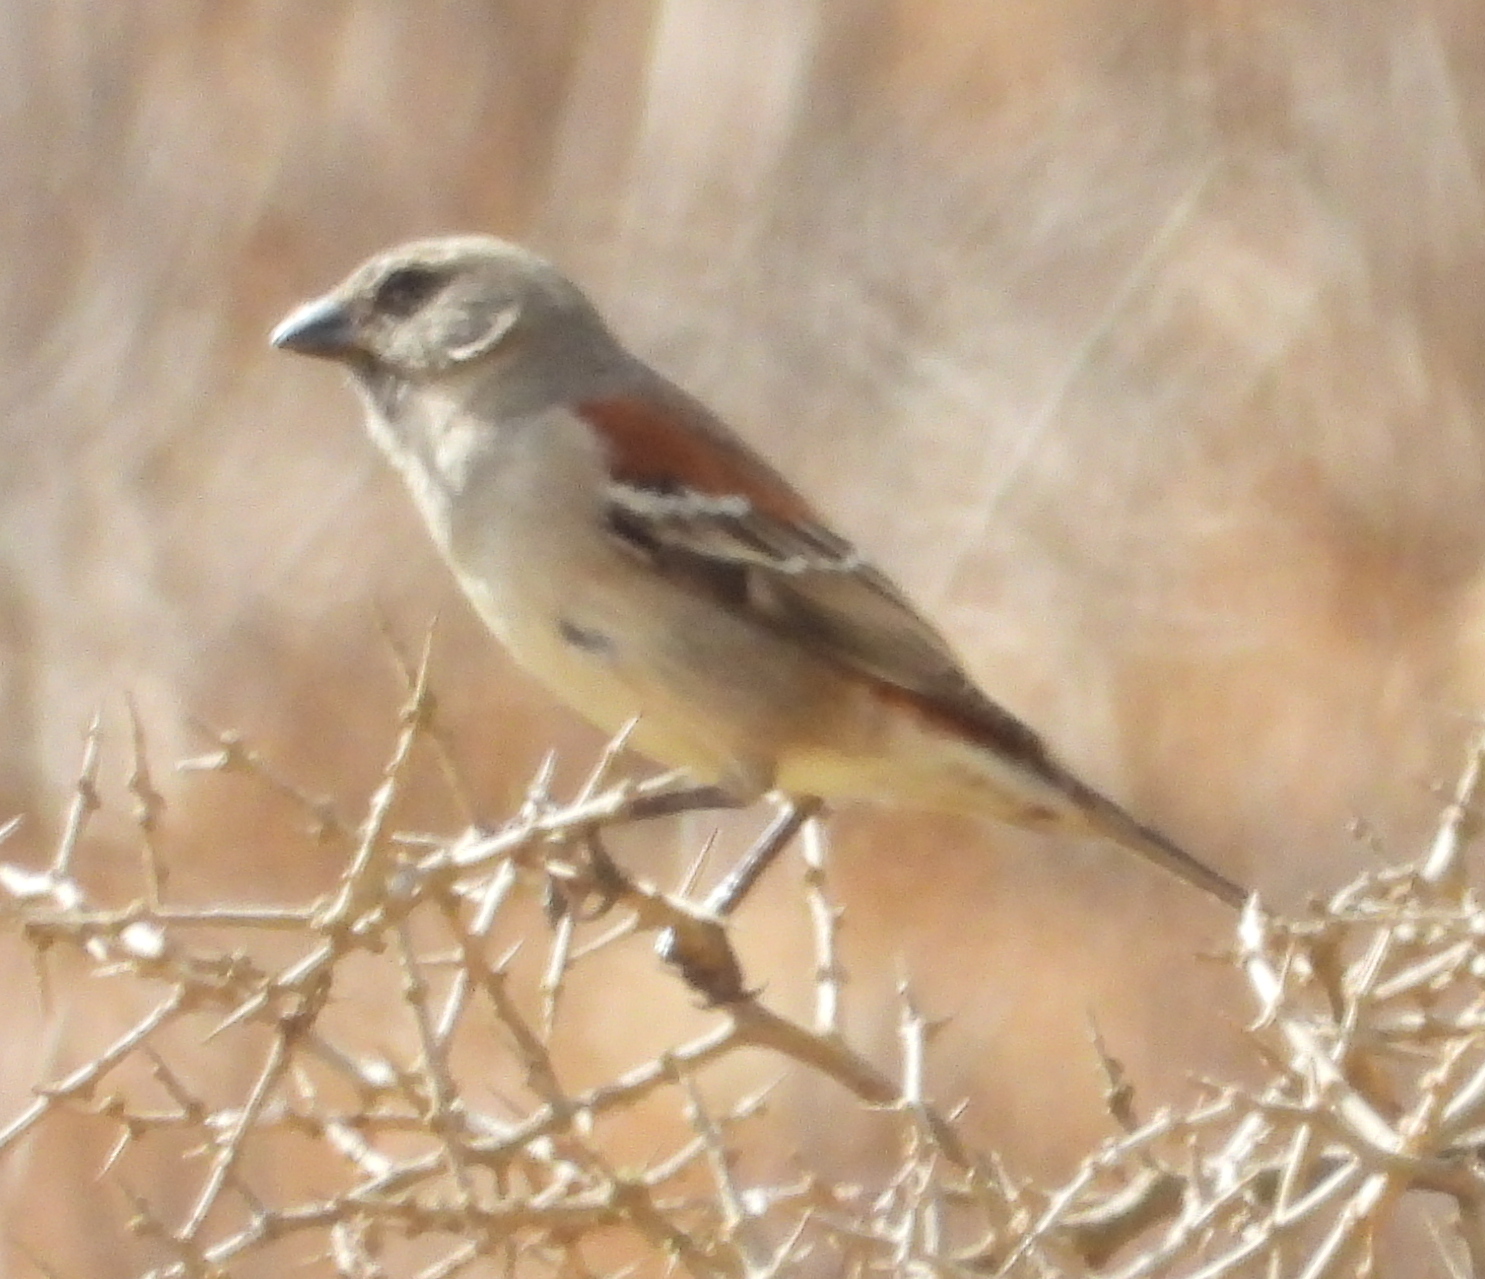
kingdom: Animalia
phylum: Chordata
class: Aves
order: Passeriformes
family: Passeridae
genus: Passer
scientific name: Passer melanurus
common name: Cape sparrow
